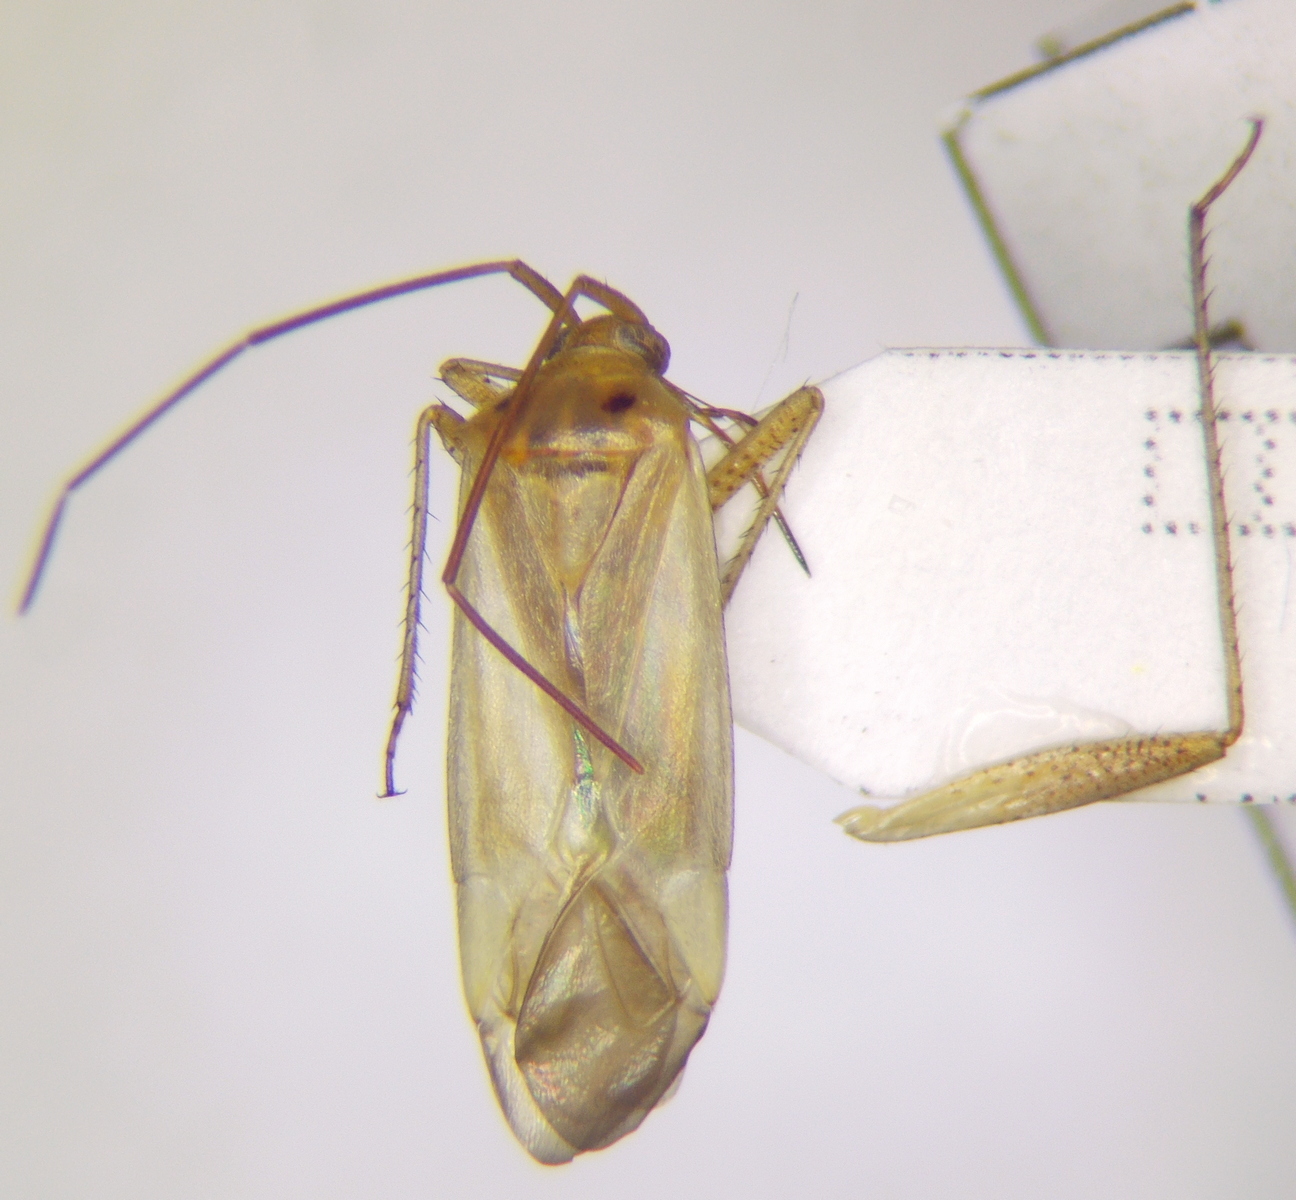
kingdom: Animalia
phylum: Arthropoda
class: Insecta
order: Hemiptera
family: Miridae
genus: Adelphocoris
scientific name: Adelphocoris lineolatus
